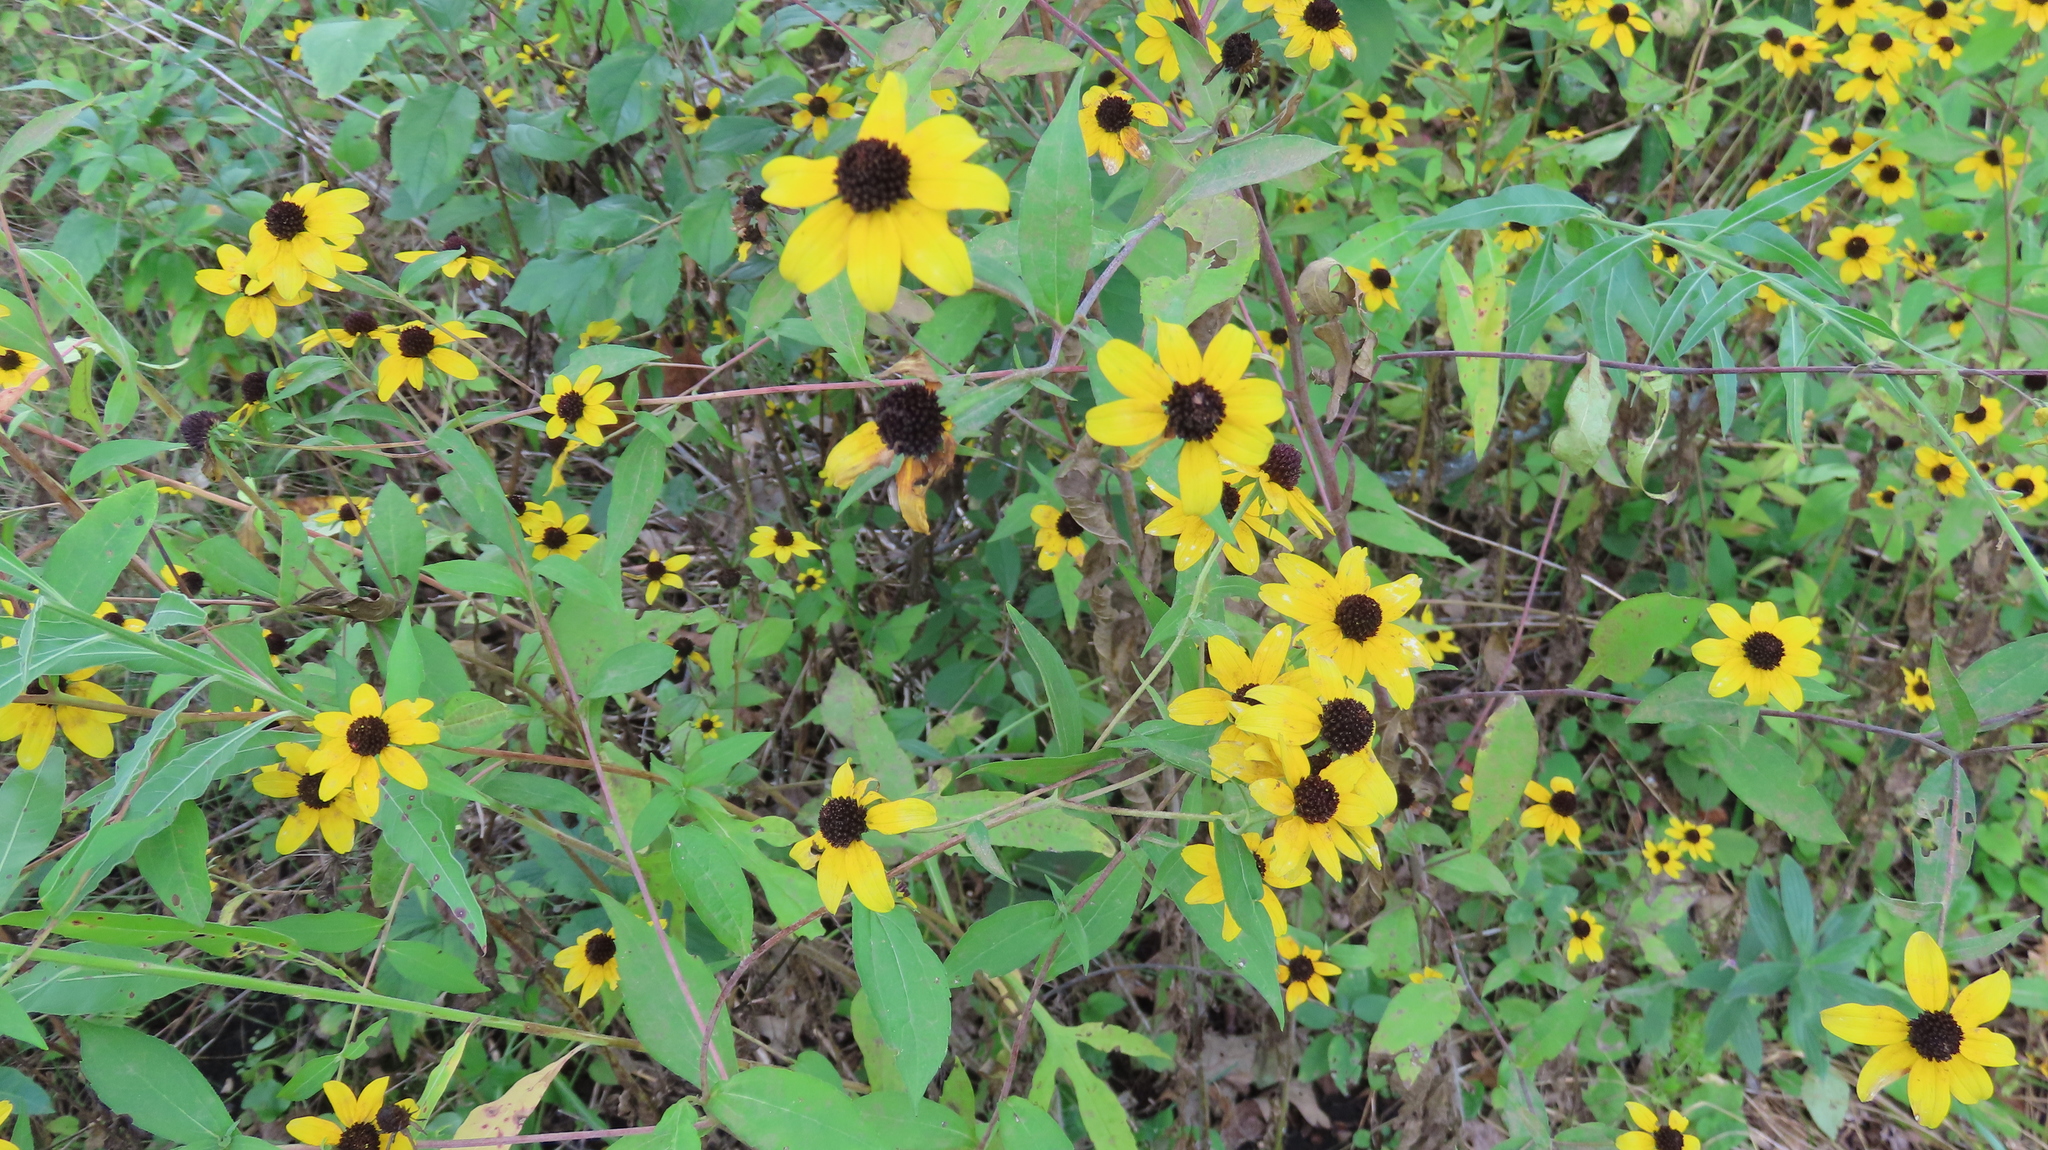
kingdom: Plantae
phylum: Tracheophyta
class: Magnoliopsida
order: Asterales
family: Asteraceae
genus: Rudbeckia
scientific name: Rudbeckia triloba
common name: Thin-leaved coneflower
